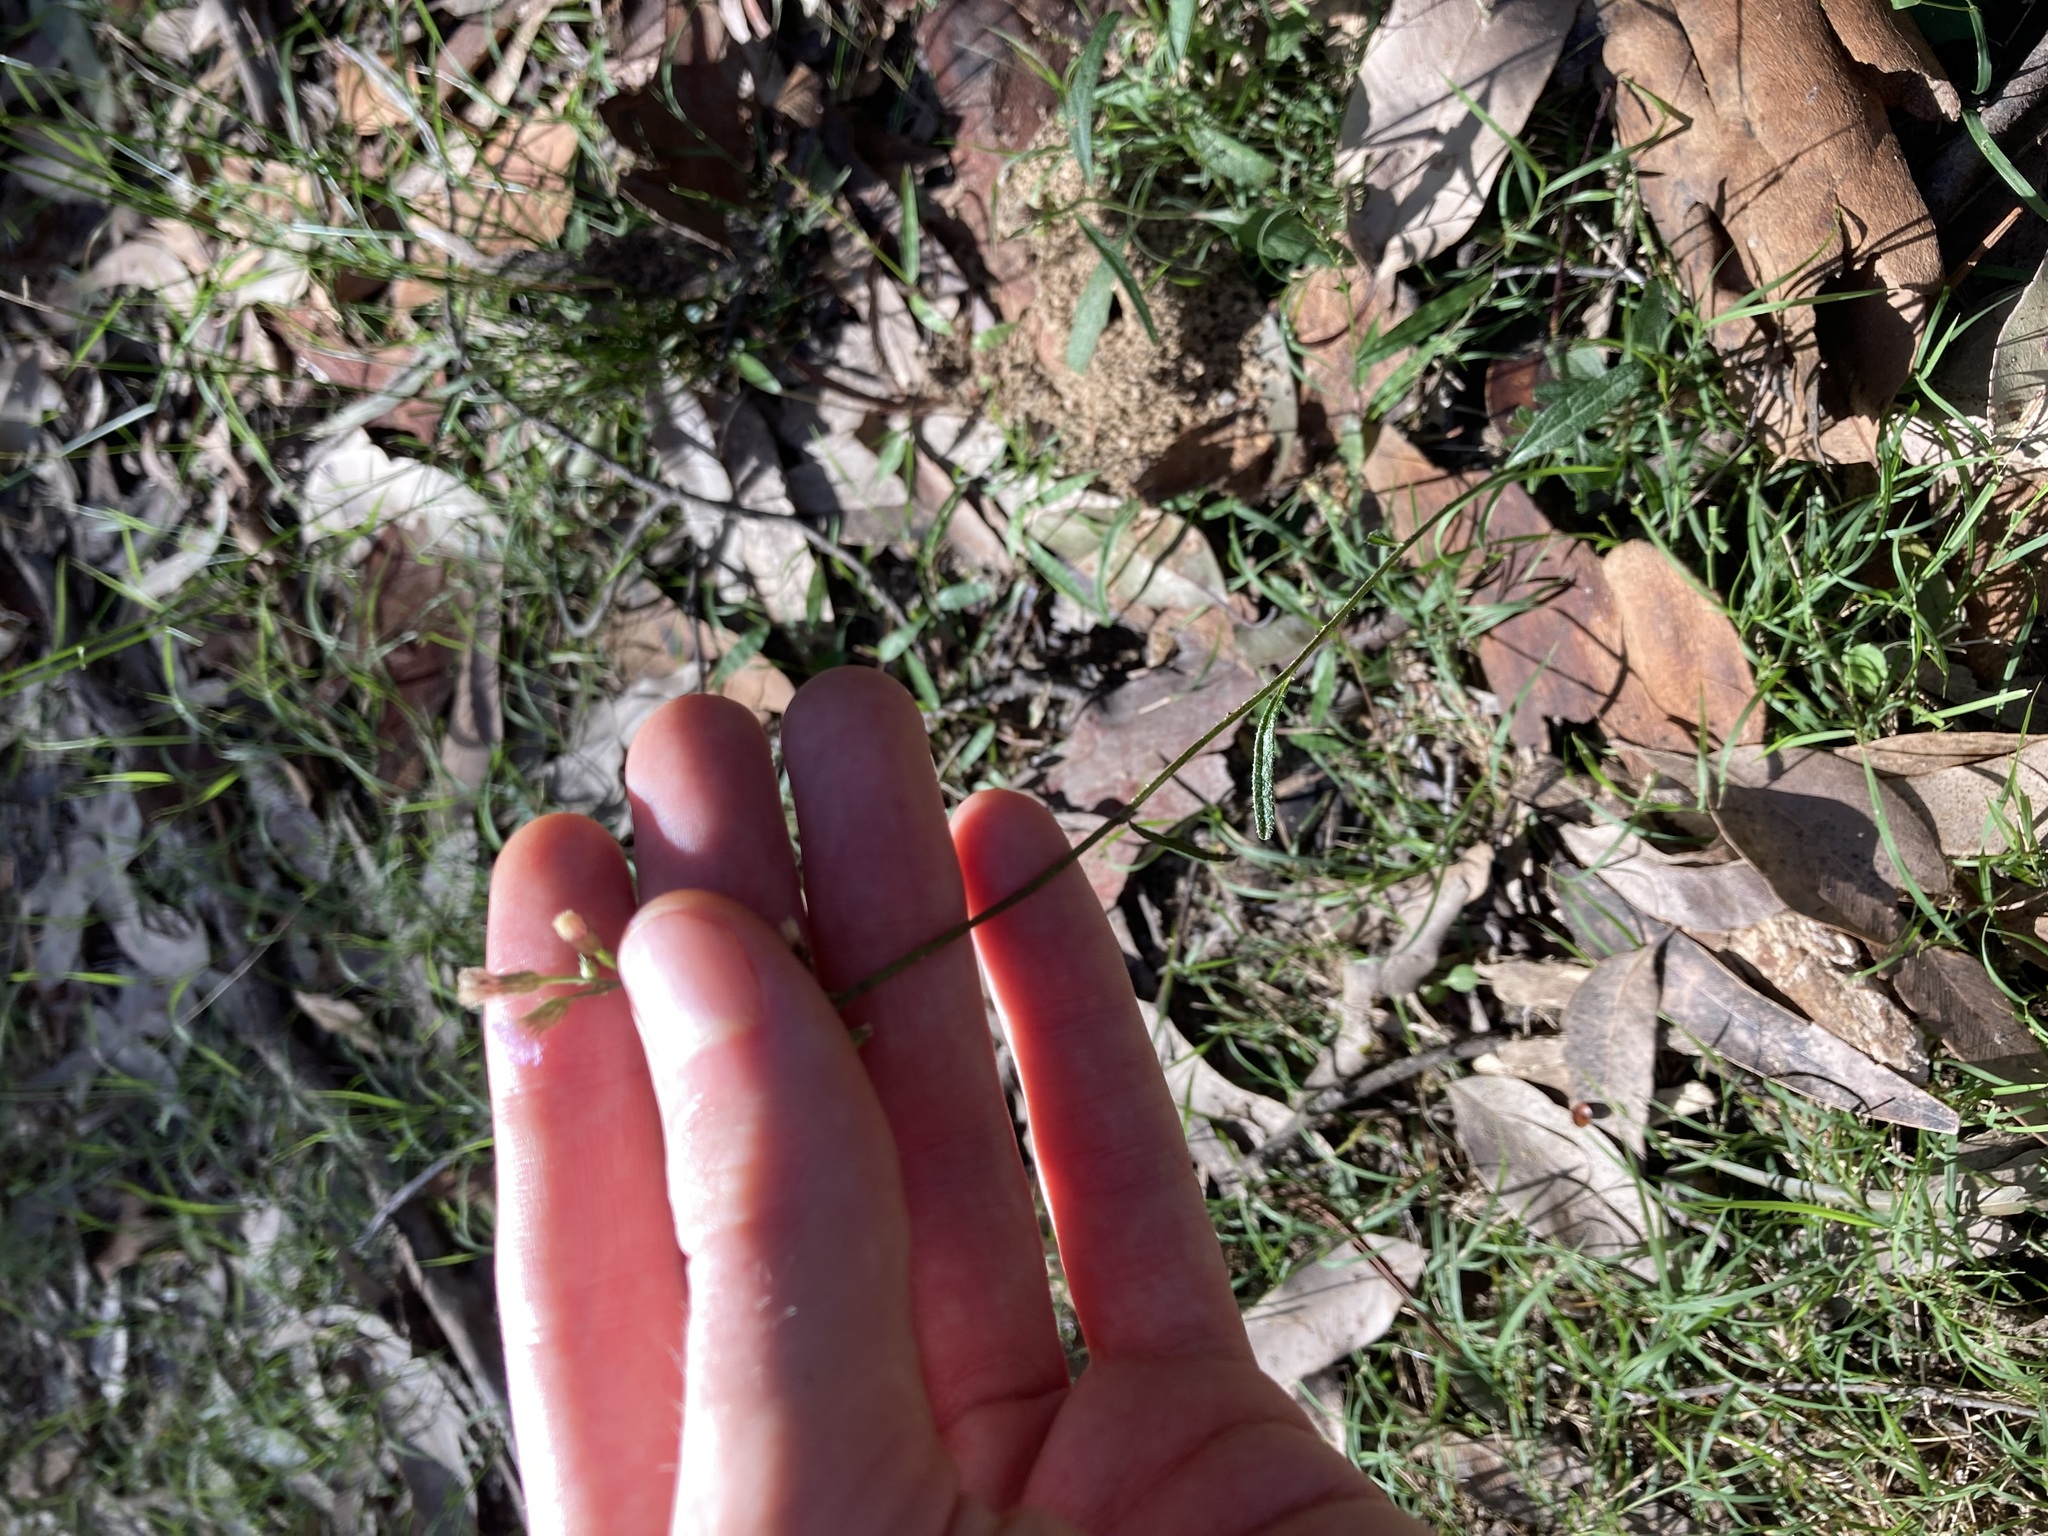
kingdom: Plantae
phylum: Tracheophyta
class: Magnoliopsida
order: Asterales
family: Asteraceae
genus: Cyanthillium
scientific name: Cyanthillium cinereum
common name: Little ironweed
